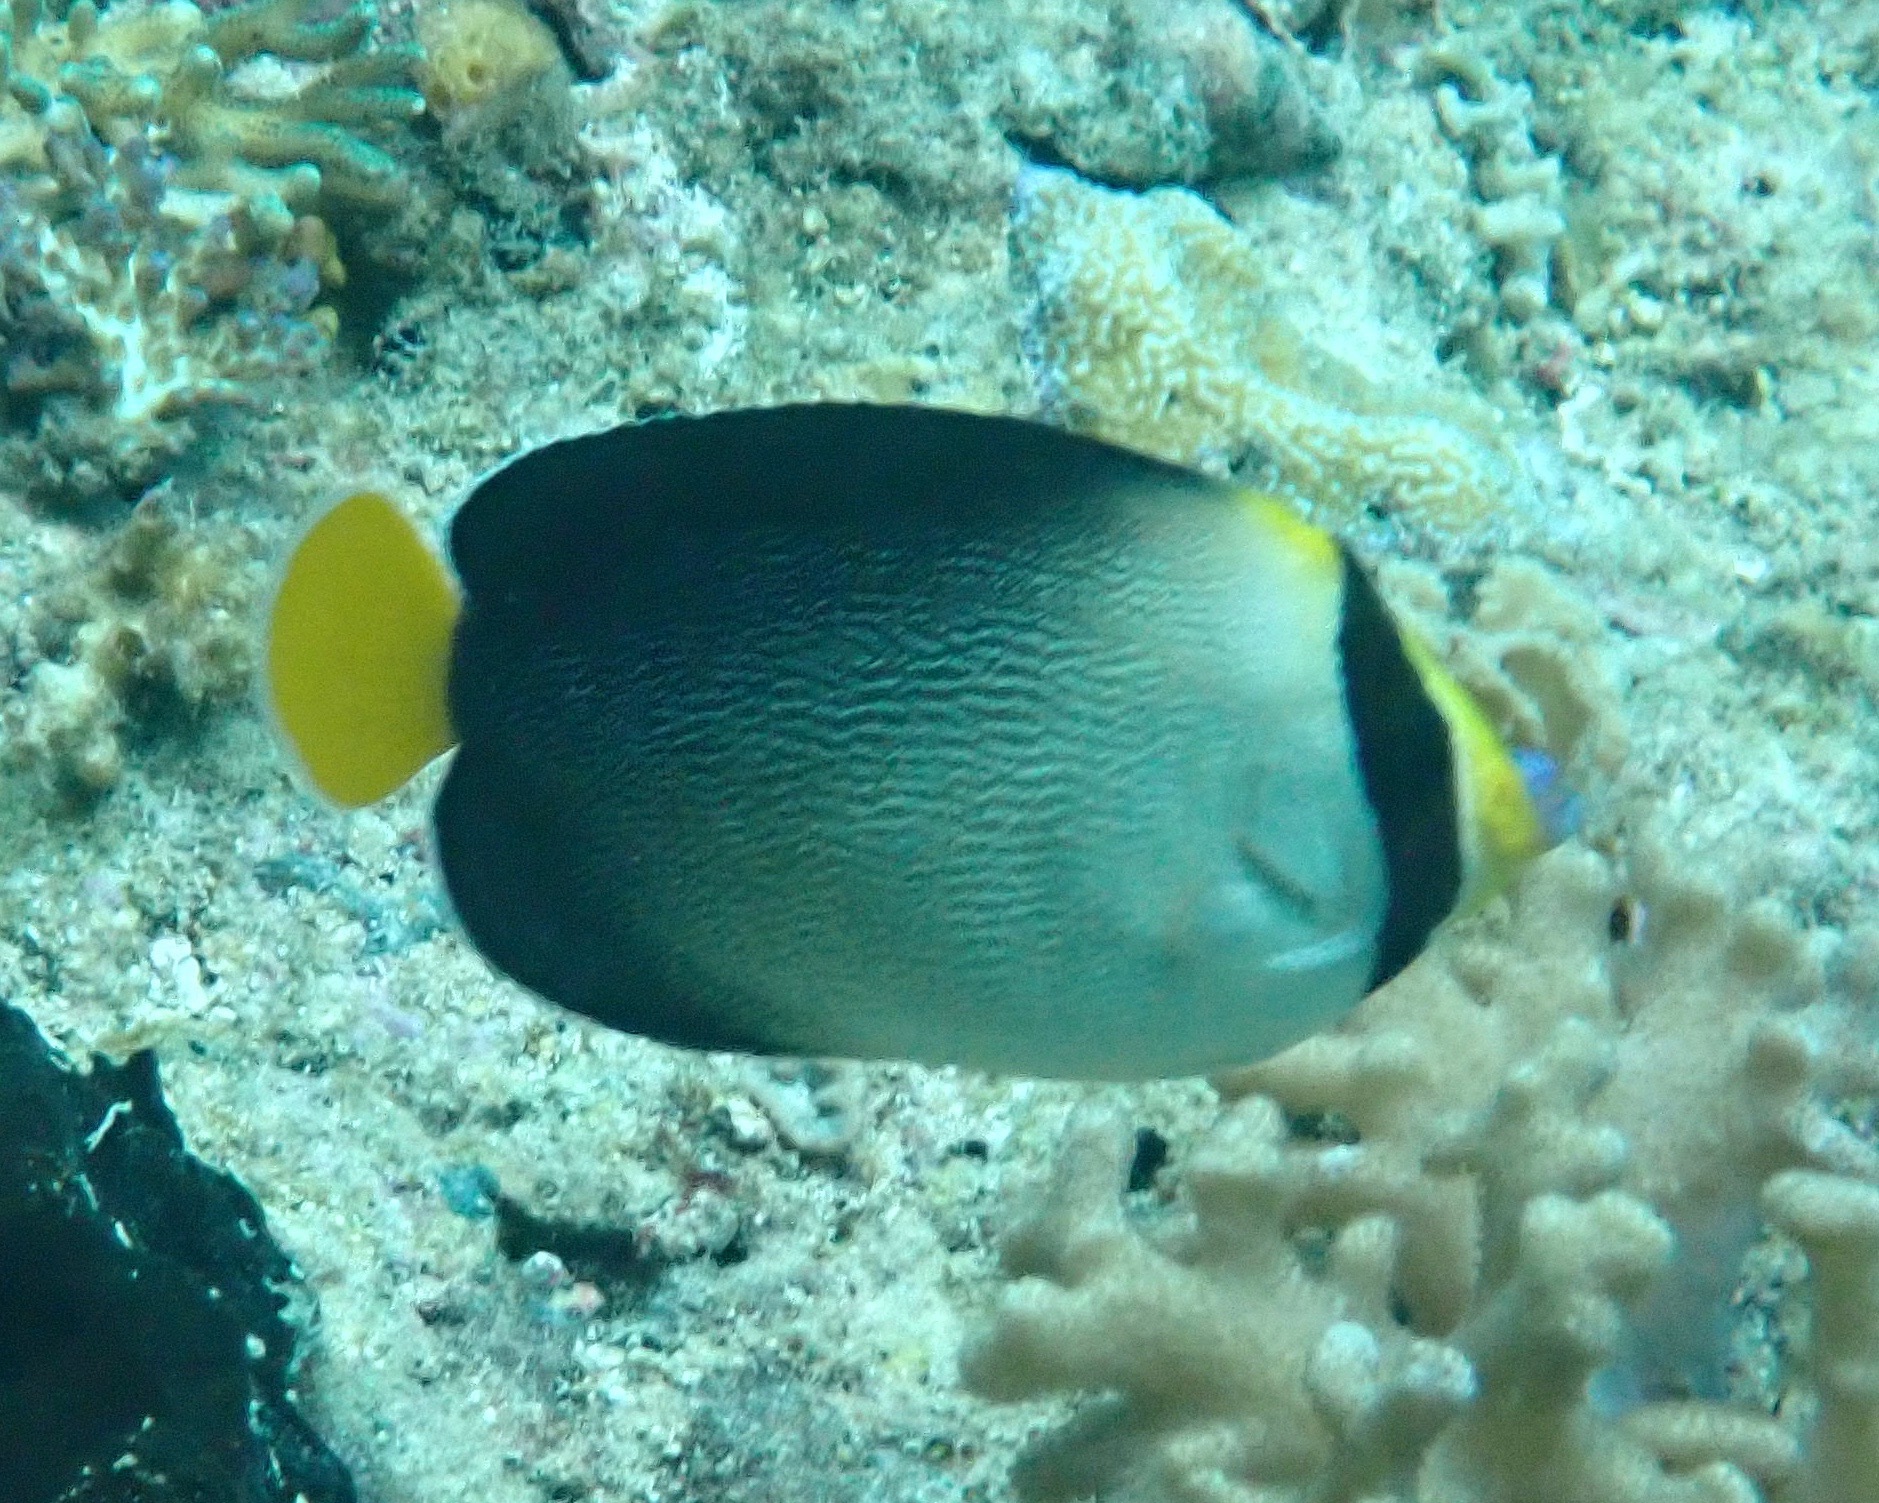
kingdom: Animalia
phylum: Chordata
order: Perciformes
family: Pomacanthidae
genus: Chaetodontoplus
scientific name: Chaetodontoplus mesoleucus
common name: Vermiculated angelfish
